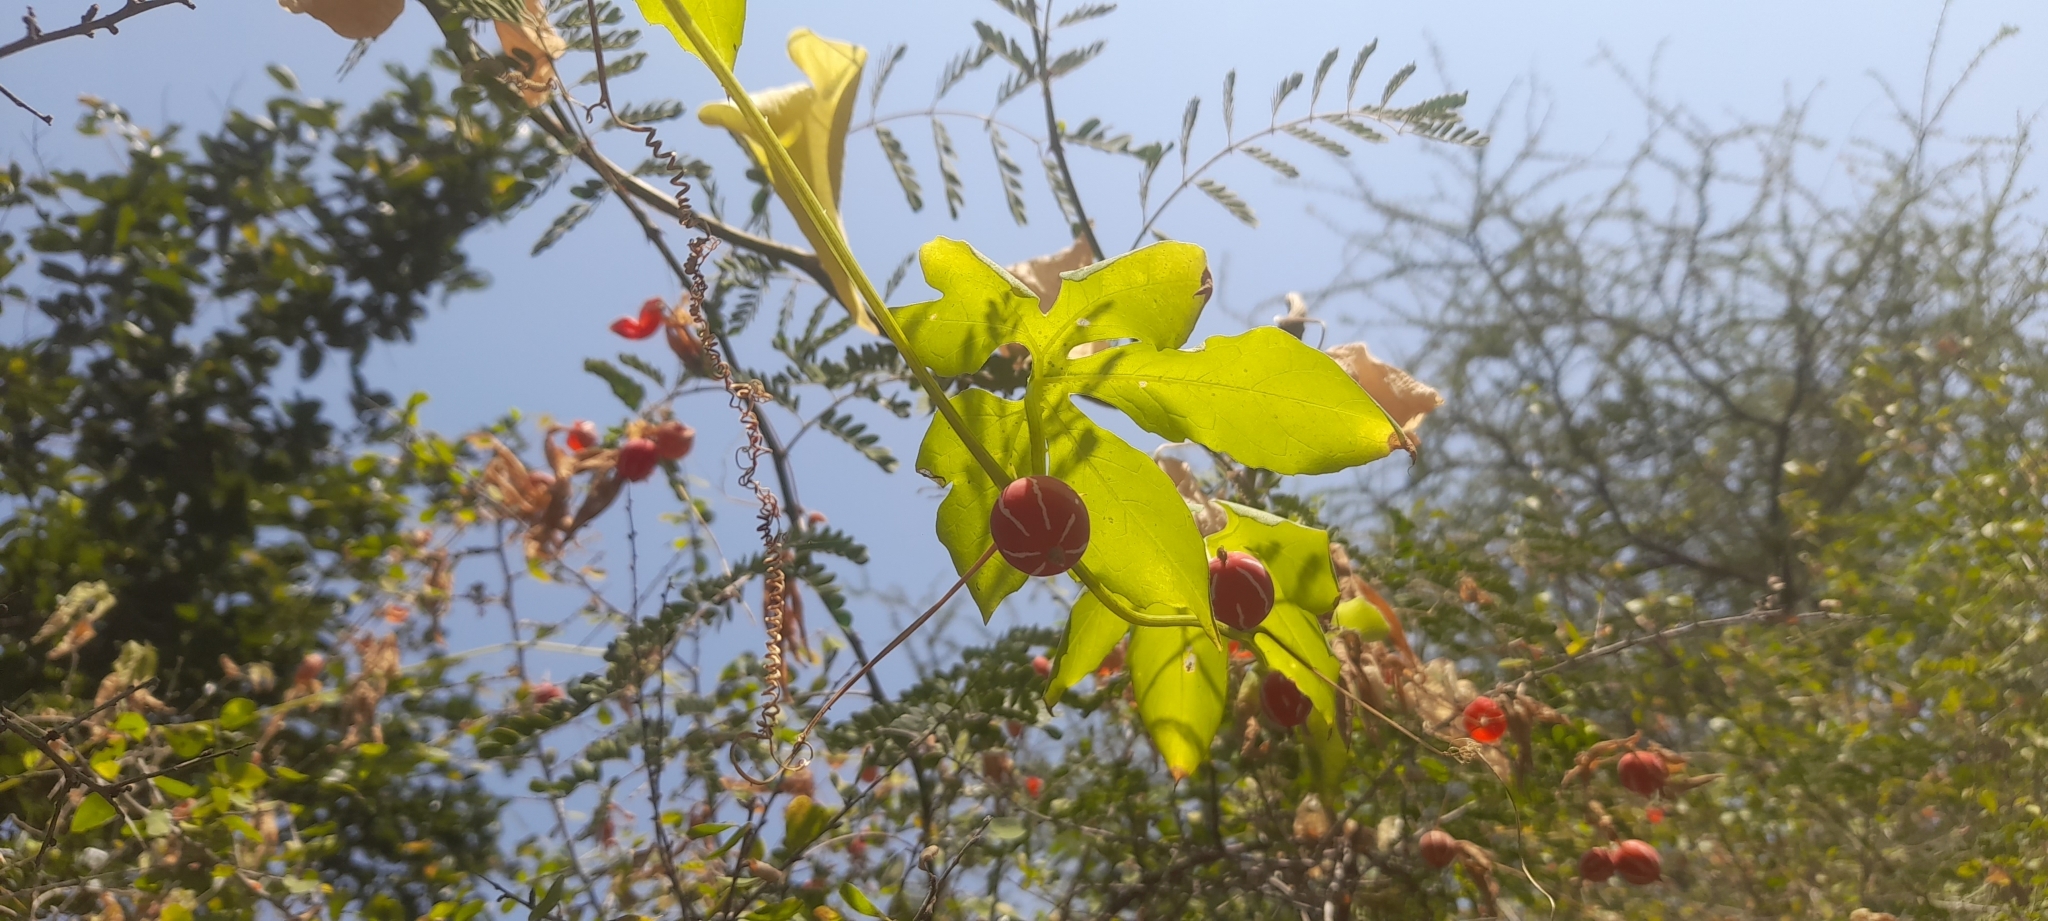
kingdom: Plantae
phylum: Tracheophyta
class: Magnoliopsida
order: Cucurbitales
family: Cucurbitaceae
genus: Diplocyclos
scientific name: Diplocyclos palmatus
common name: Striped-cucumber
